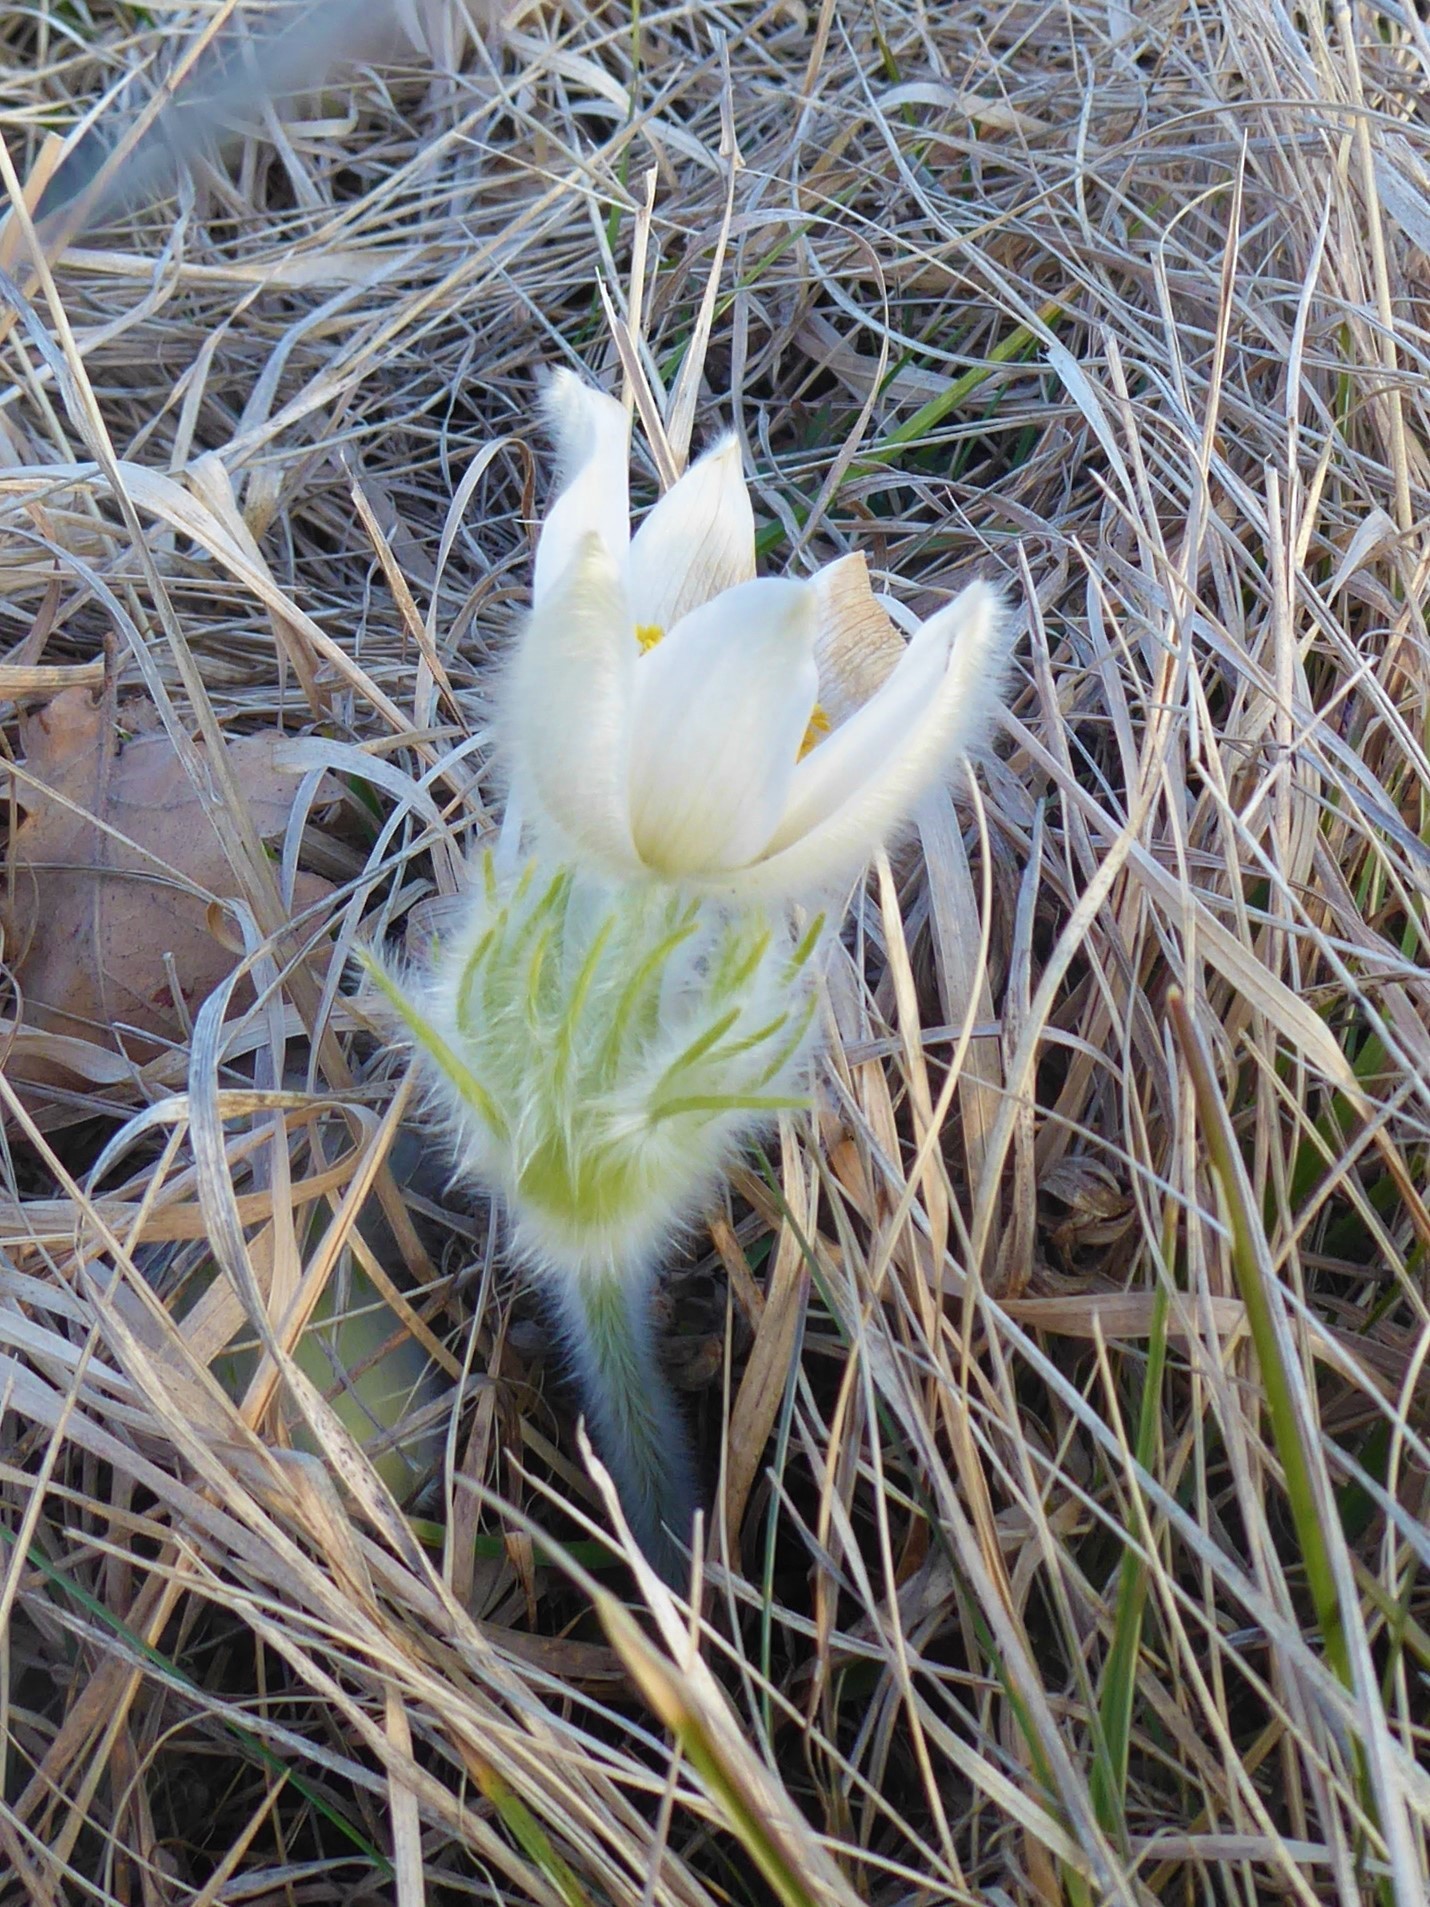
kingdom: Plantae
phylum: Tracheophyta
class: Magnoliopsida
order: Ranunculales
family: Ranunculaceae
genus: Pulsatilla
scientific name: Pulsatilla grandis
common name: Greater pasque flower
